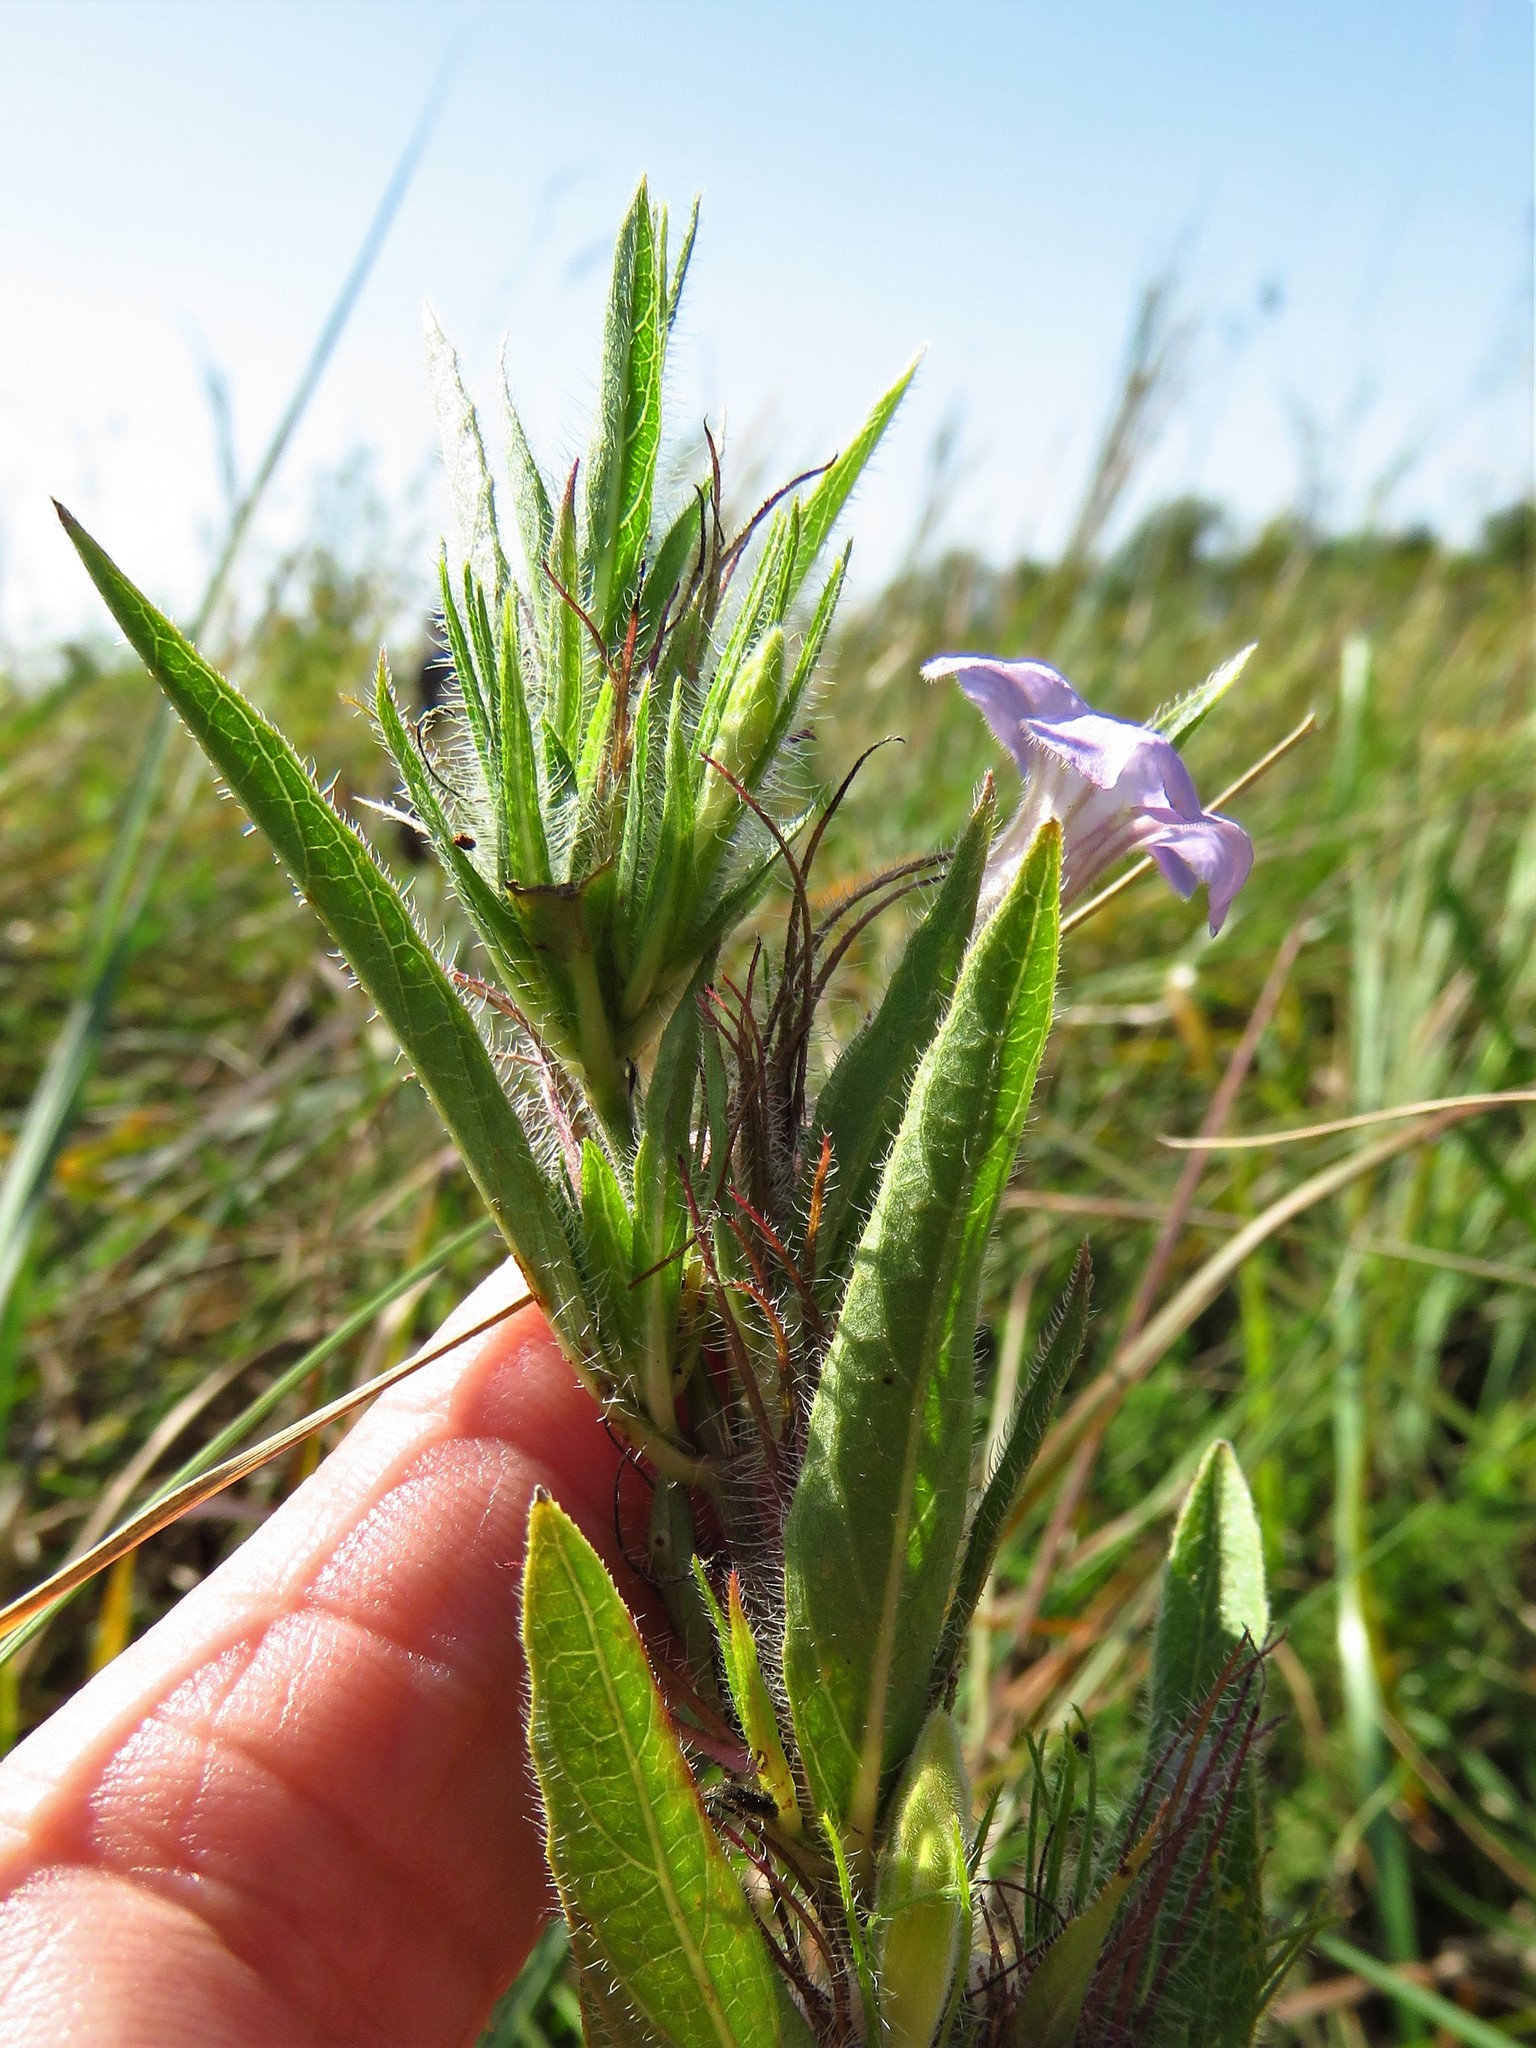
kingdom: Plantae
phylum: Tracheophyta
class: Magnoliopsida
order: Lamiales
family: Acanthaceae
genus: Ruellia
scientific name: Ruellia humilis
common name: Fringe-leaf ruellia
